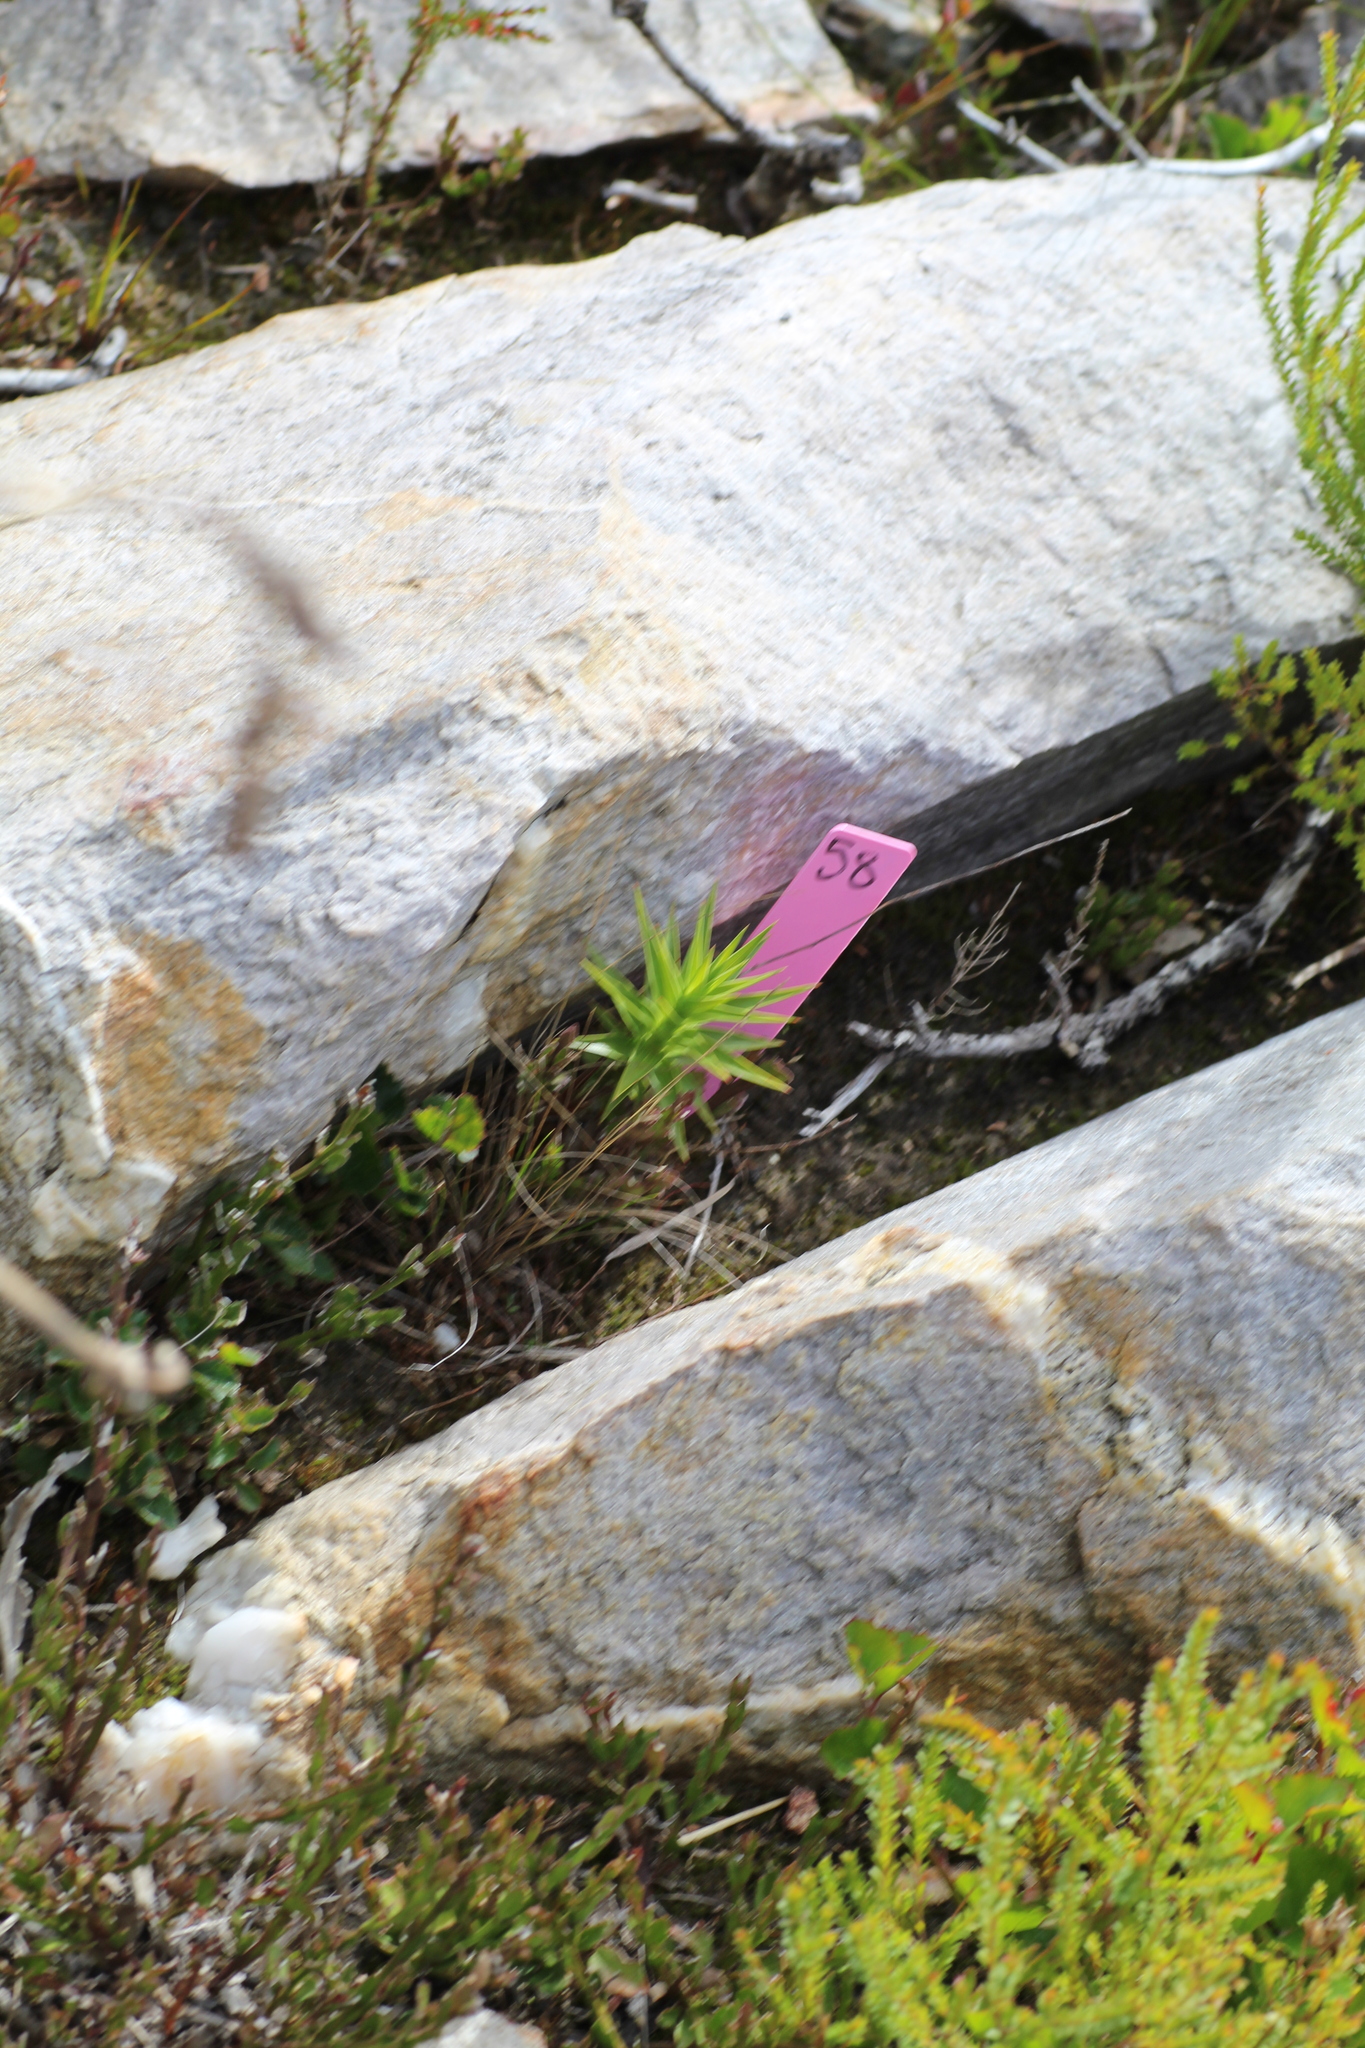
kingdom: Plantae
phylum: Tracheophyta
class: Magnoliopsida
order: Ericales
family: Ericaceae
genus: Andersonia
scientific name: Andersonia axilliflora
